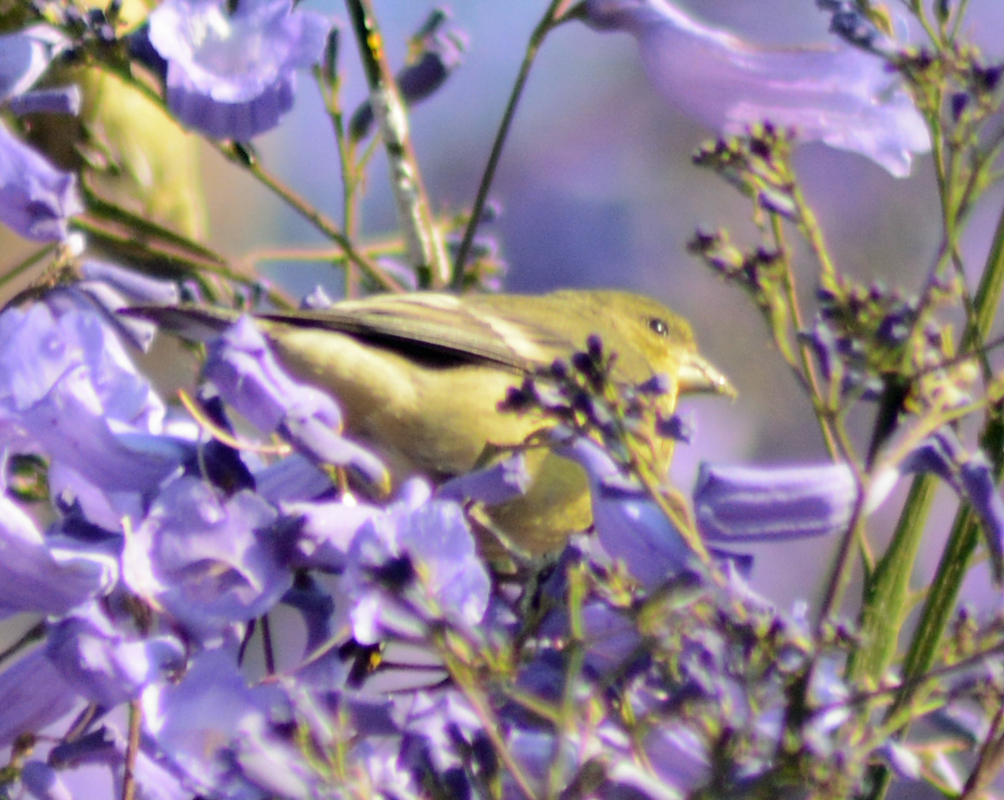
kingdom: Animalia
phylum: Chordata
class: Aves
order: Passeriformes
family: Fringillidae
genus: Spinus
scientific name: Spinus psaltria
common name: Lesser goldfinch
